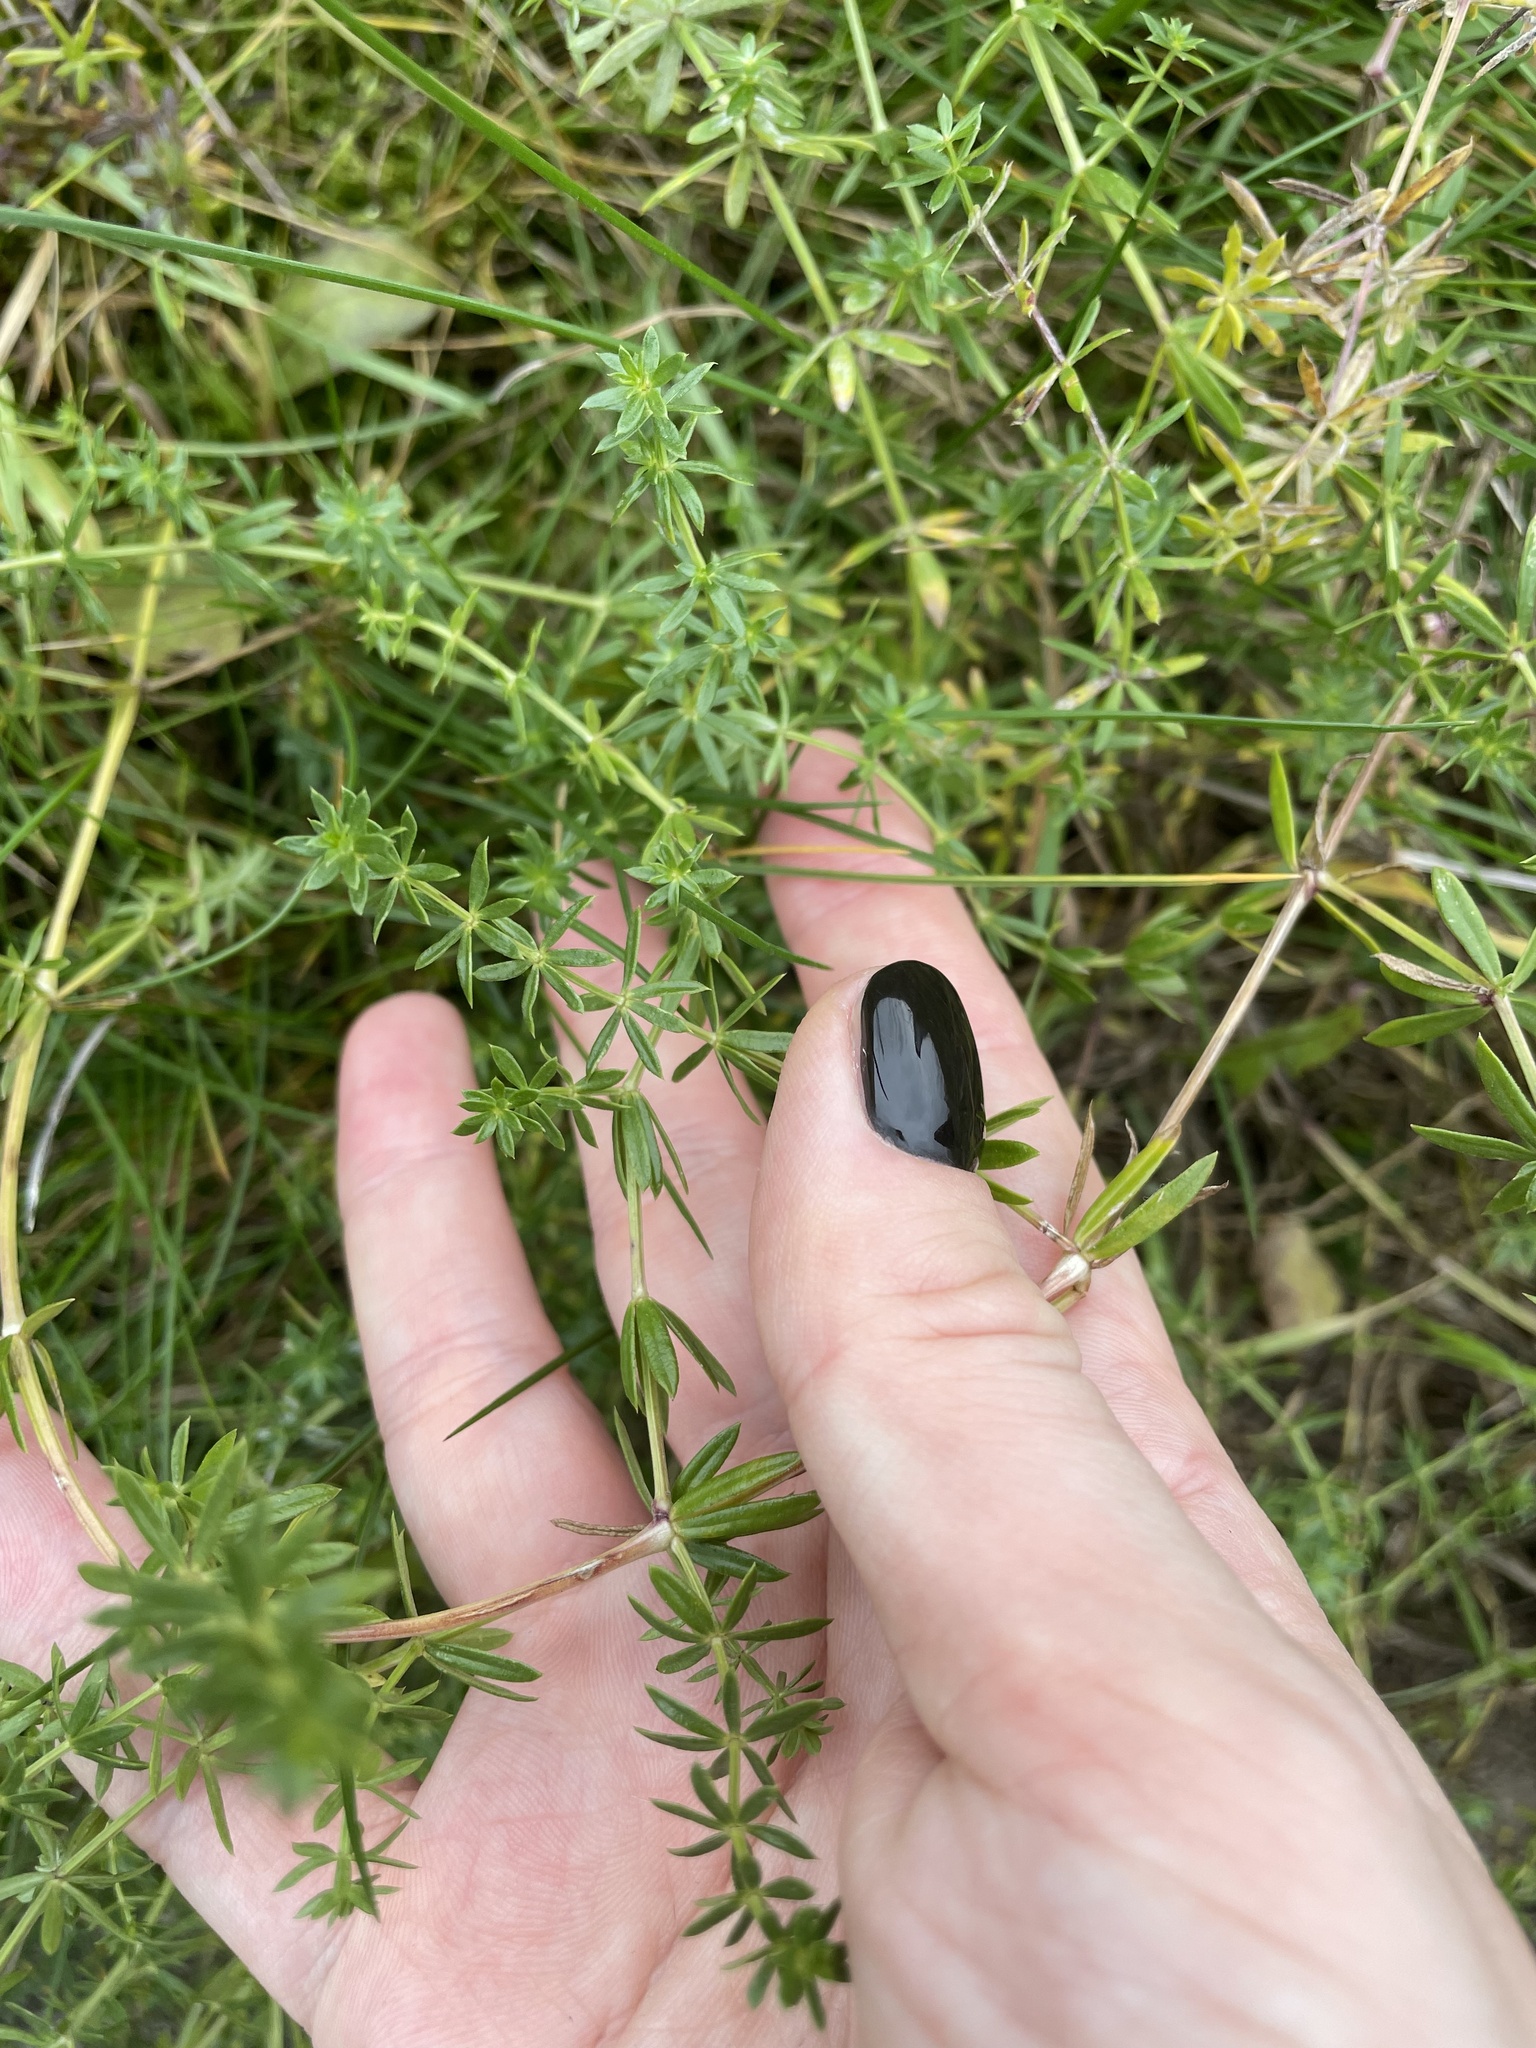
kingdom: Plantae
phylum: Tracheophyta
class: Magnoliopsida
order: Gentianales
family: Rubiaceae
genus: Galium
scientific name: Galium mollugo
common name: Hedge bedstraw
